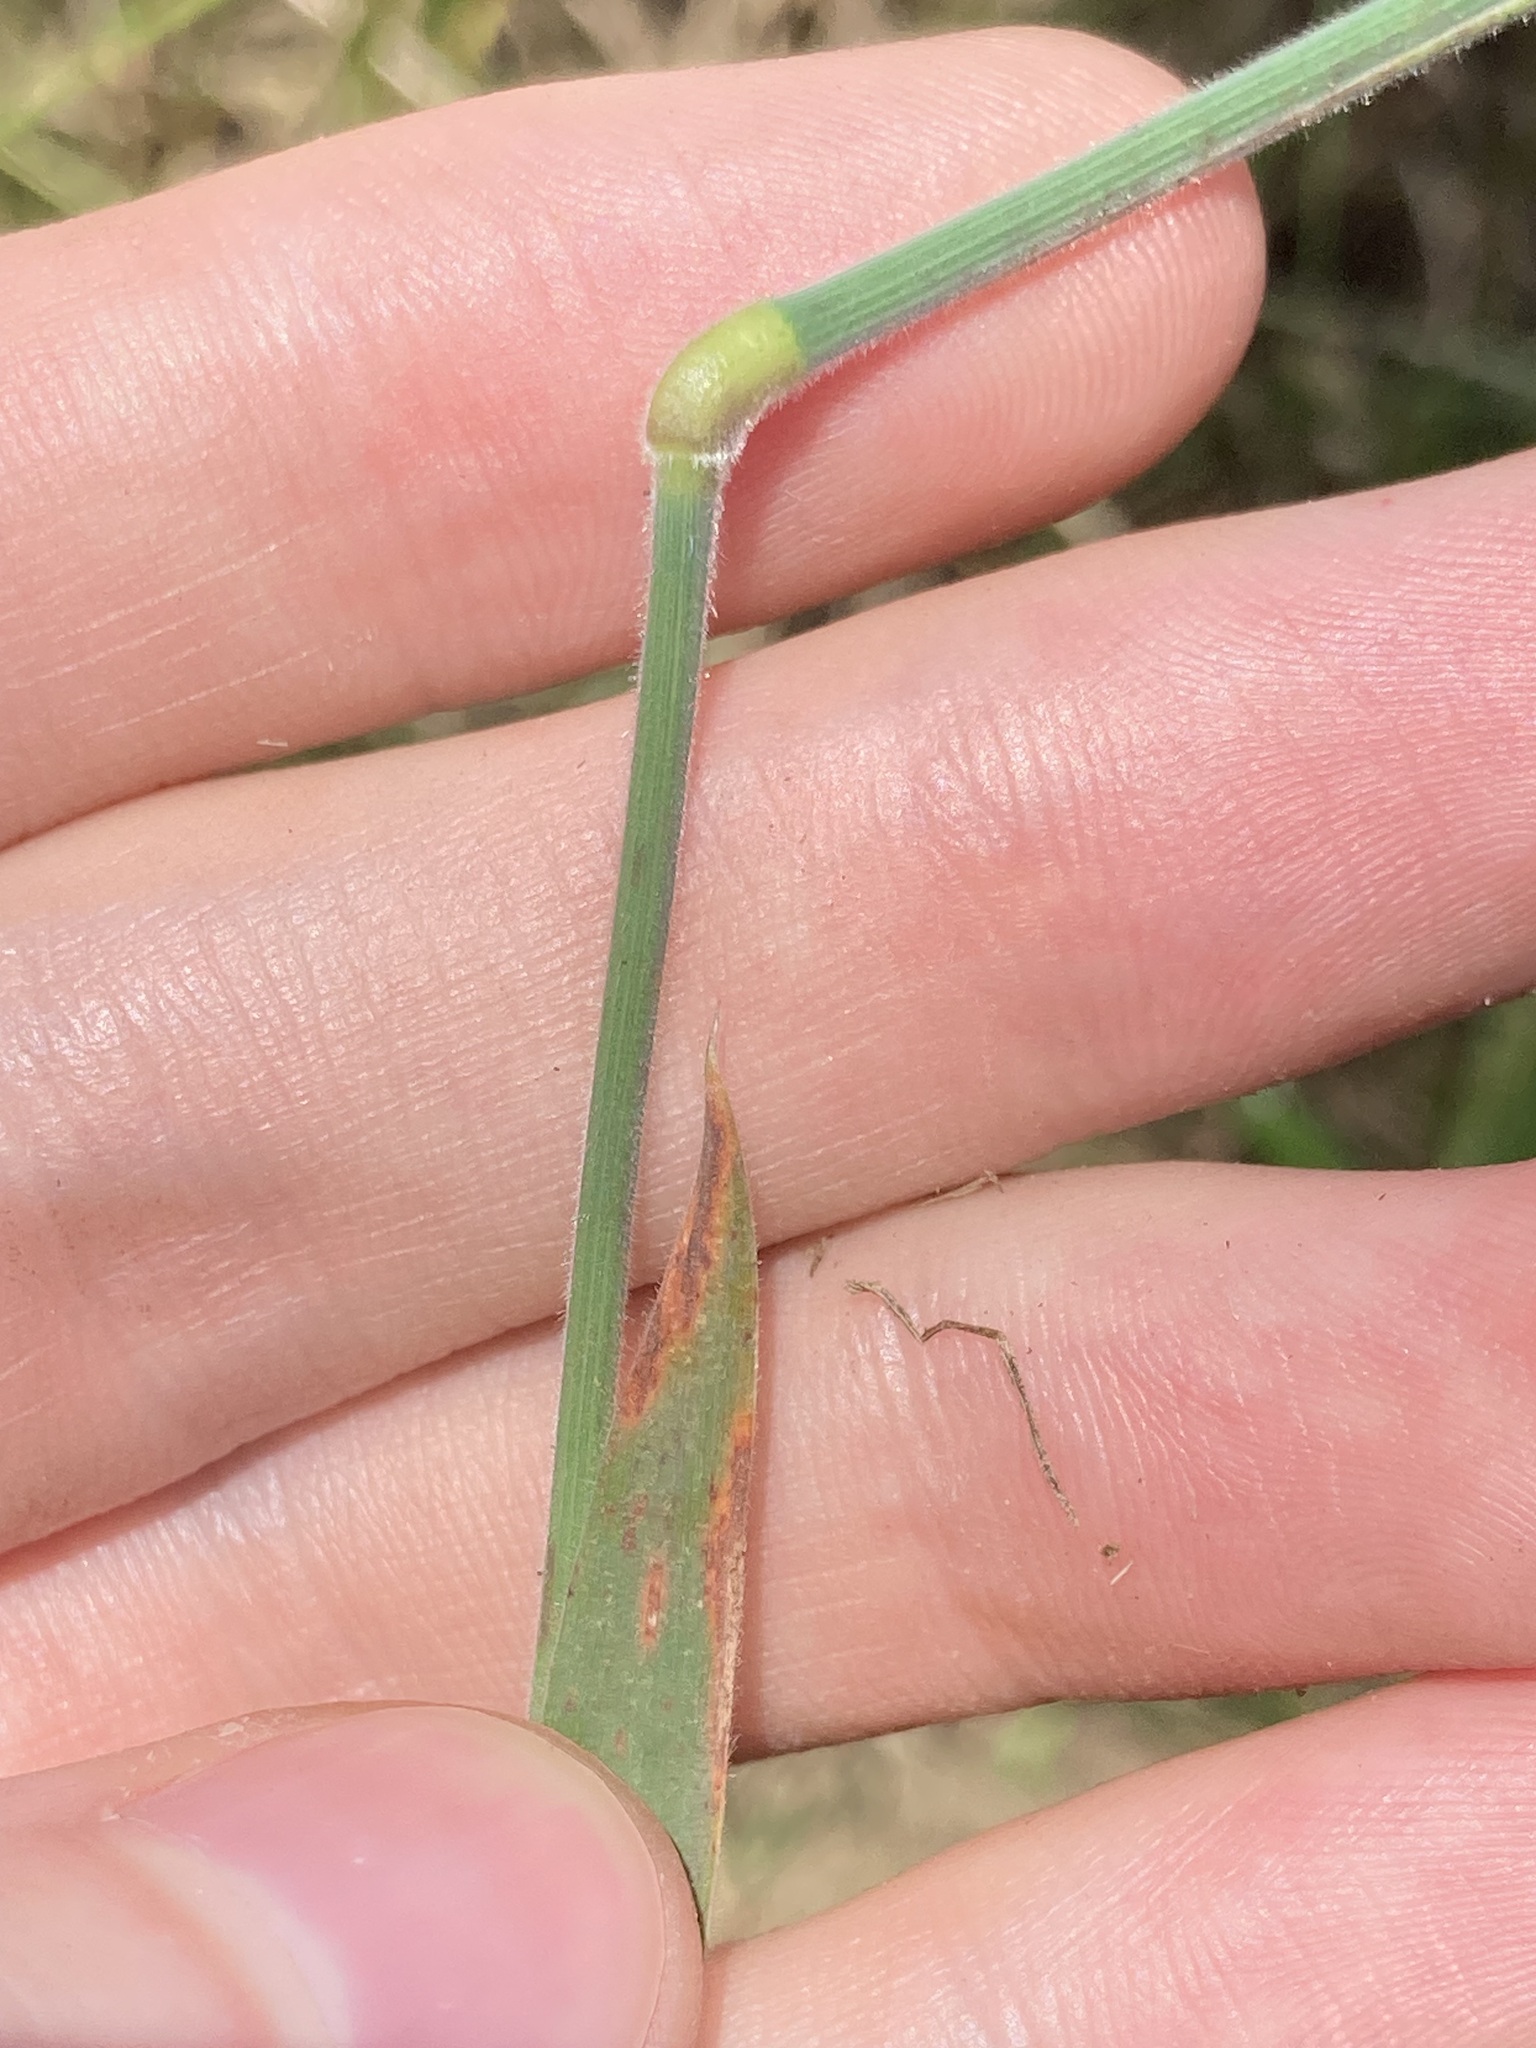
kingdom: Plantae
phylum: Tracheophyta
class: Liliopsida
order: Poales
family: Poaceae
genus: Holcus
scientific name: Holcus lanatus
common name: Yorkshire-fog
